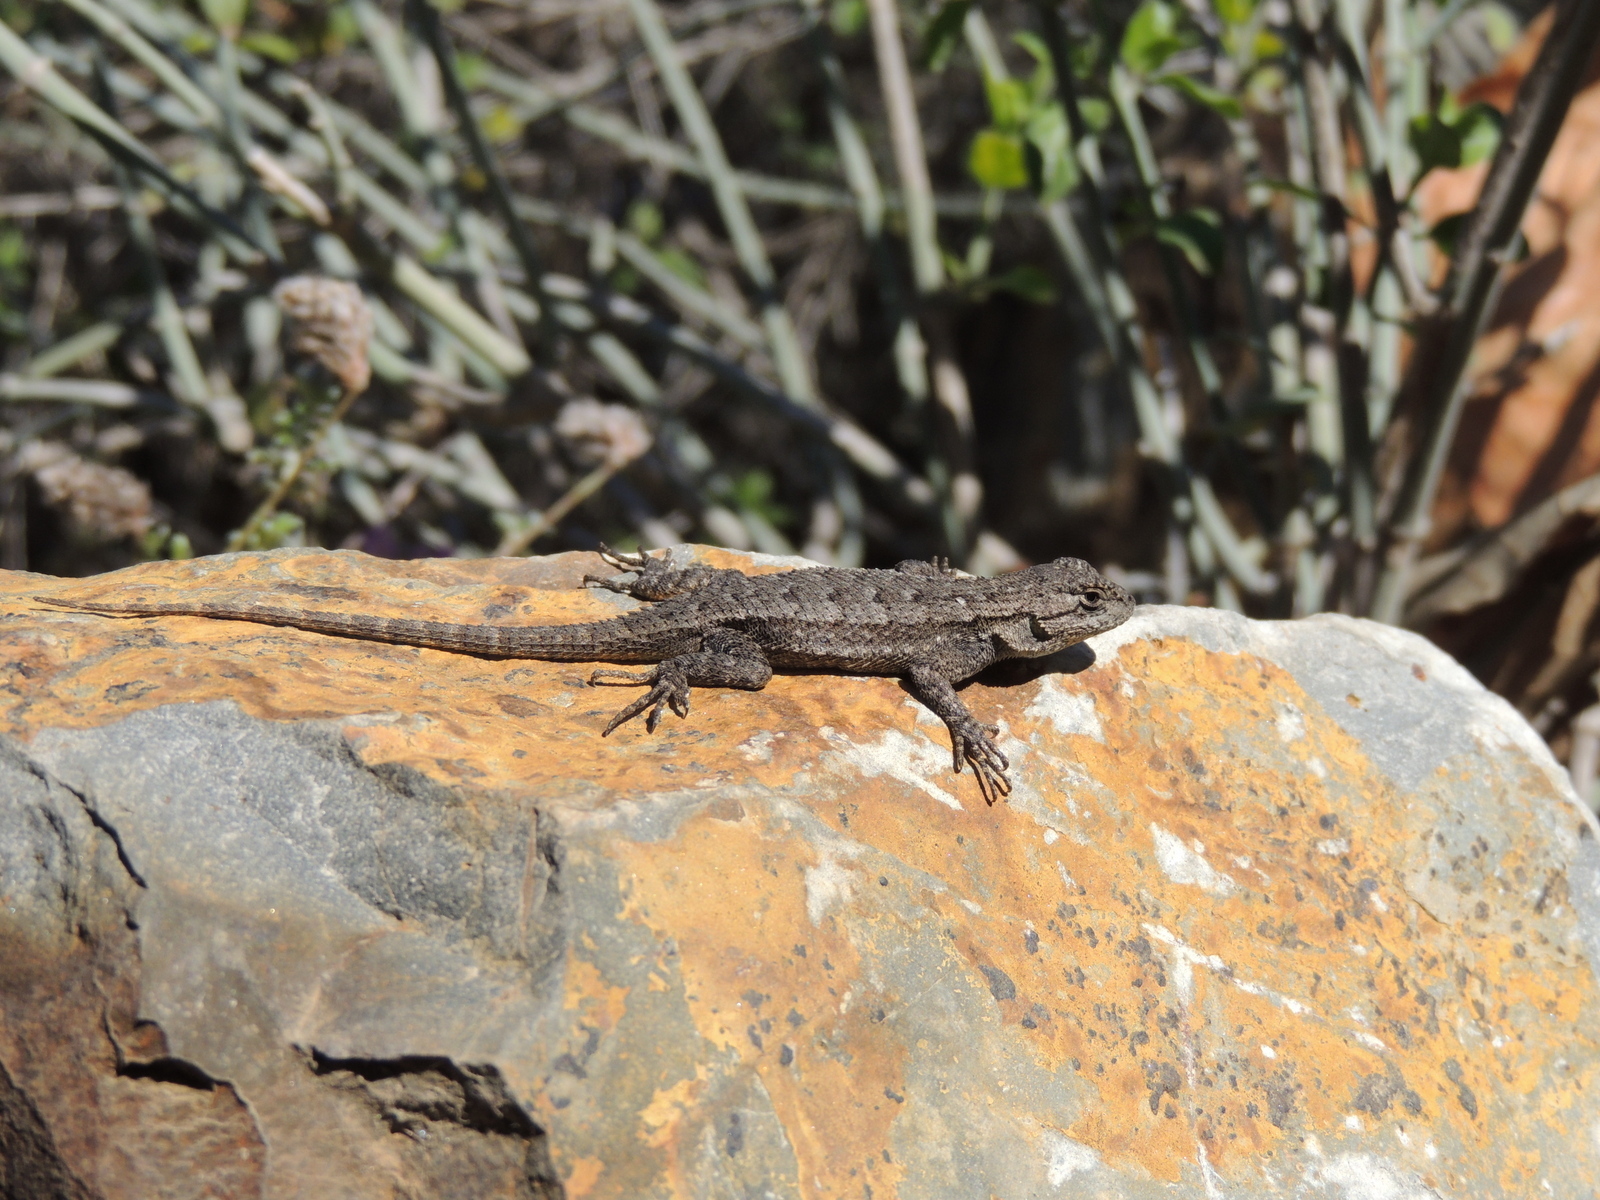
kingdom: Animalia
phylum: Chordata
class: Squamata
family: Phrynosomatidae
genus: Sceloporus
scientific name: Sceloporus occidentalis
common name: Western fence lizard
